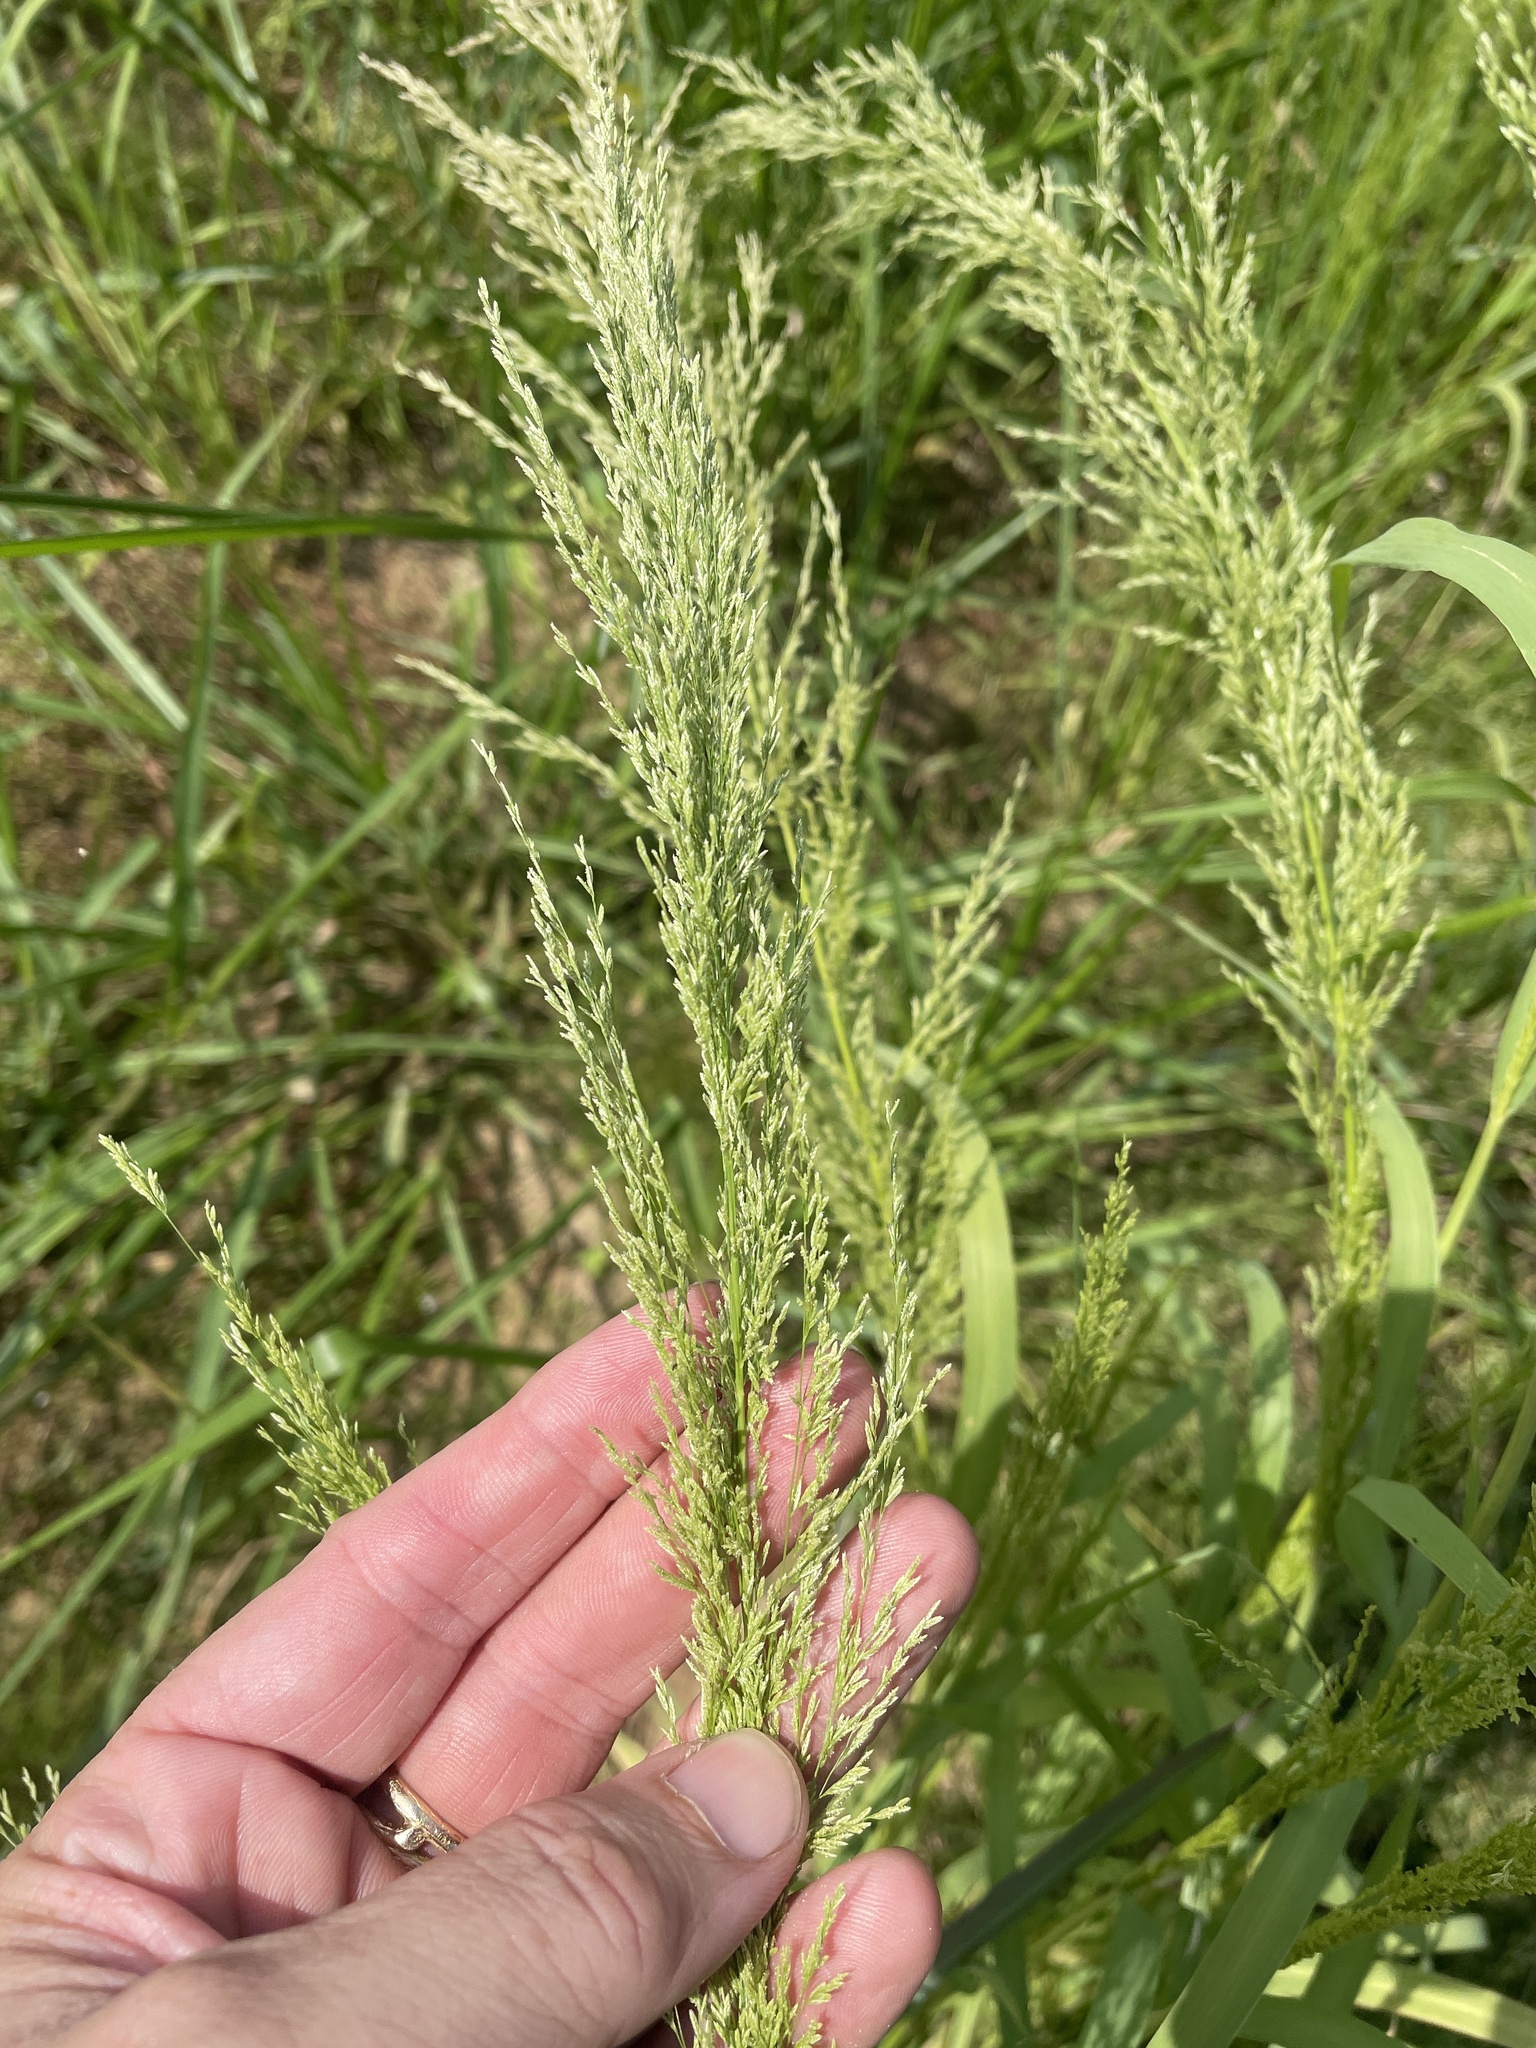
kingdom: Plantae
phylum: Tracheophyta
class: Liliopsida
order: Poales
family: Poaceae
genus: Leptochloa
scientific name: Leptochloa panicoides
